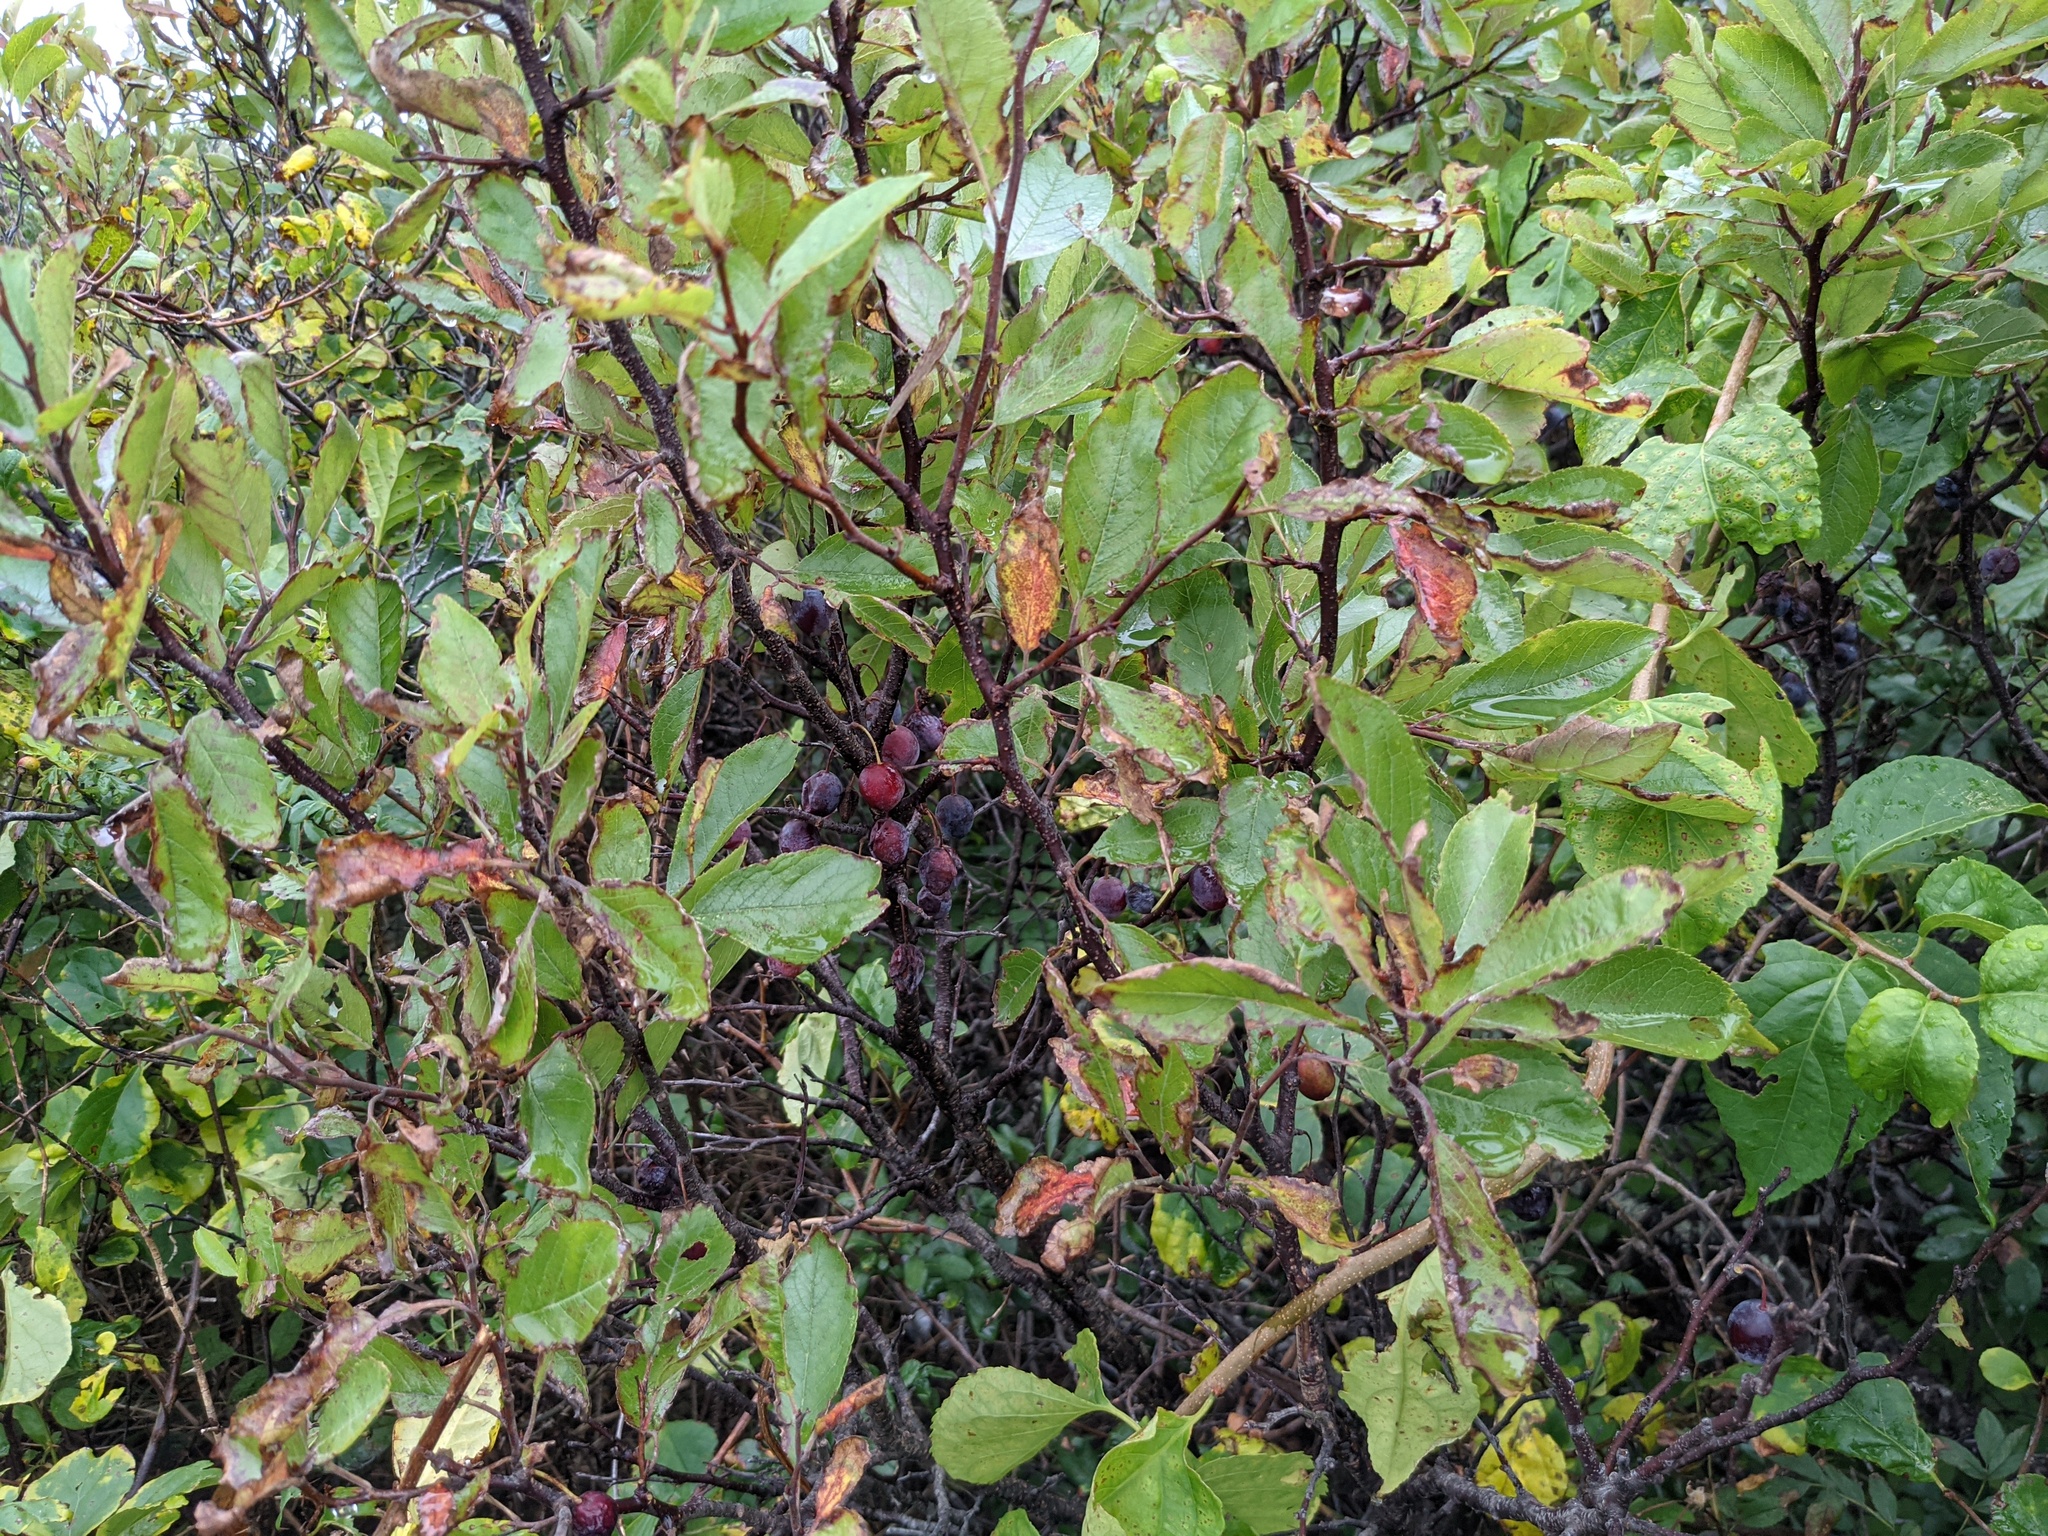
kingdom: Plantae
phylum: Tracheophyta
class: Magnoliopsida
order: Rosales
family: Rosaceae
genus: Prunus
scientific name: Prunus maritima
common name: Beach plum
